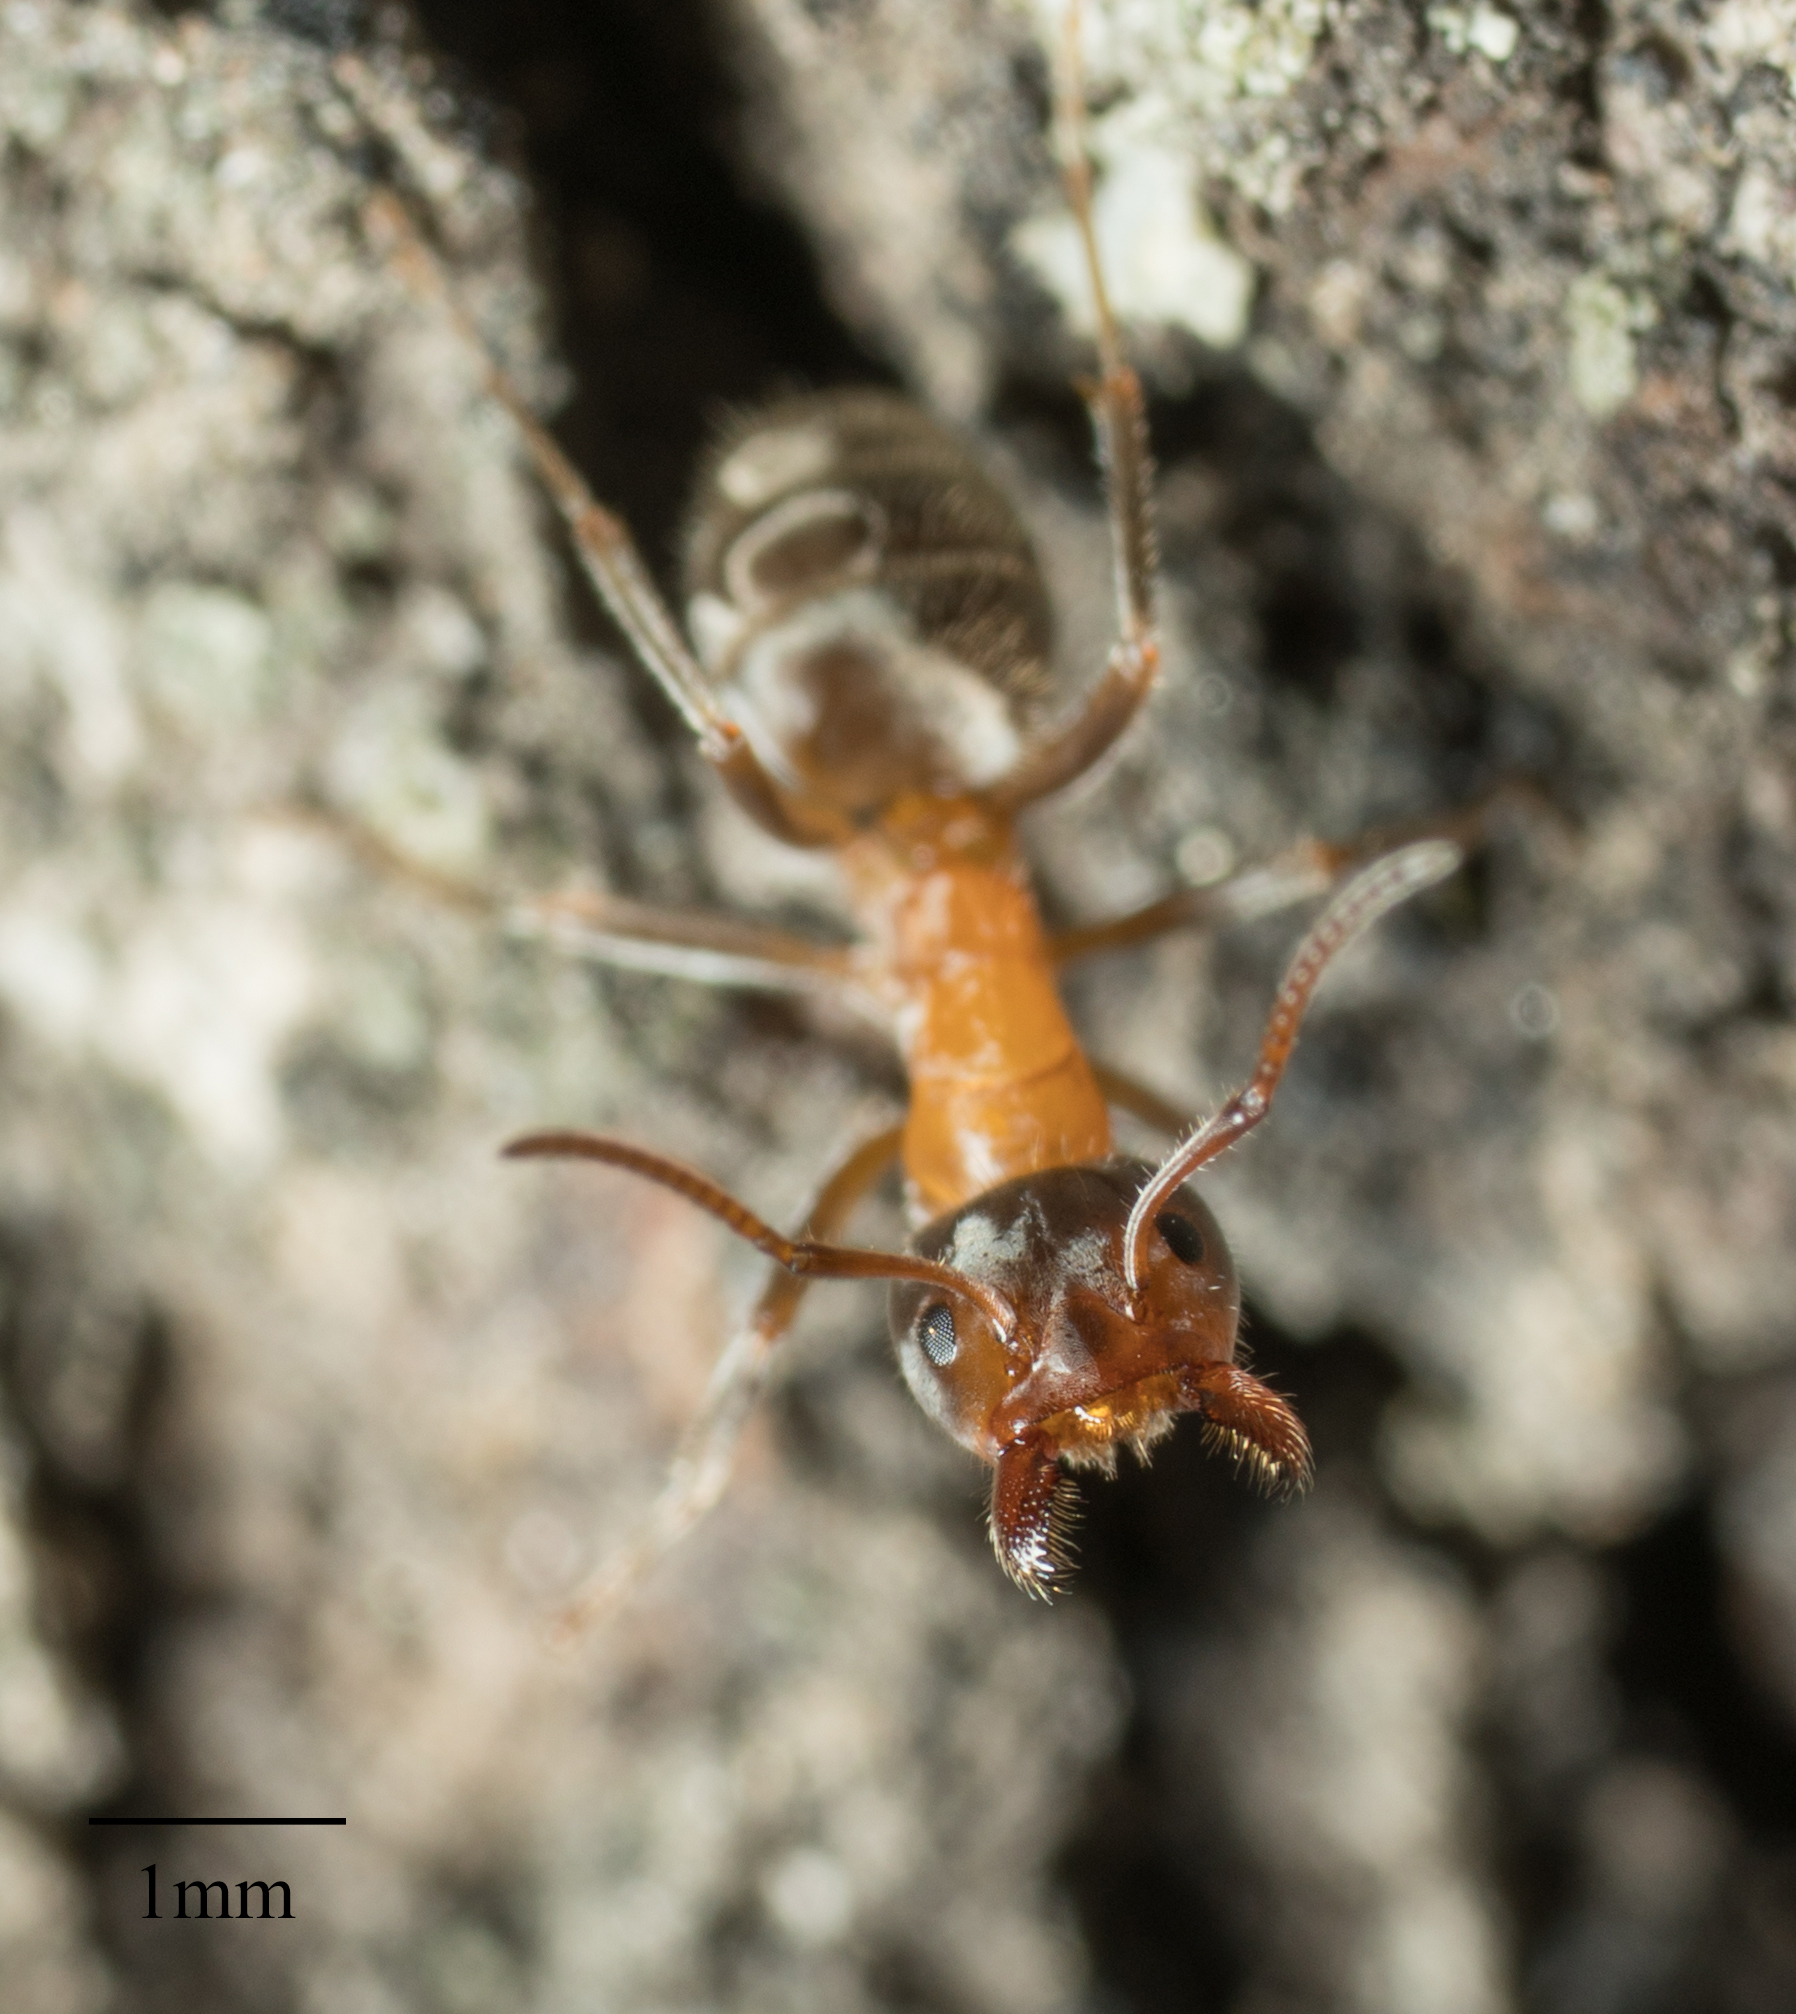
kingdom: Animalia
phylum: Arthropoda
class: Insecta
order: Hymenoptera
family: Formicidae
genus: Liometopum
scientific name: Liometopum occidentale
